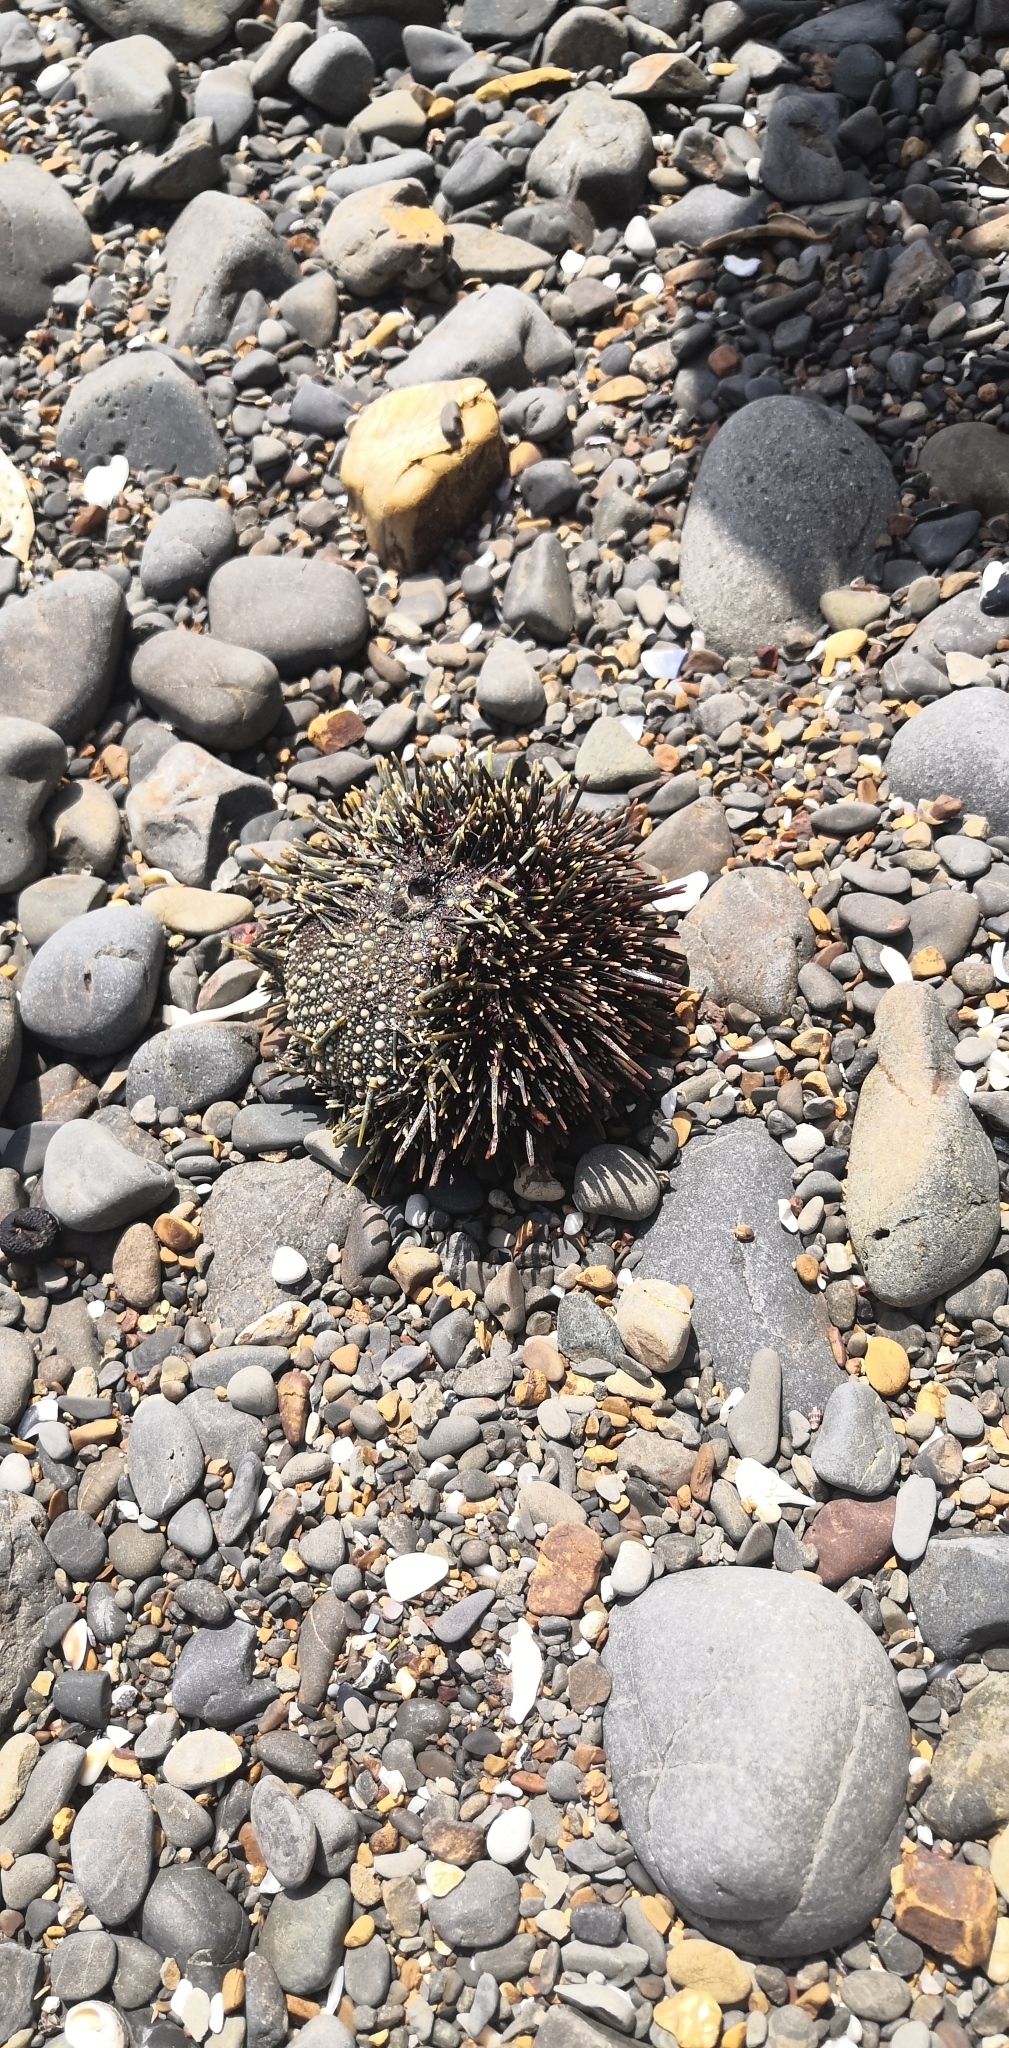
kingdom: Animalia
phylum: Echinodermata
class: Echinoidea
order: Camarodonta
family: Echinometridae
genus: Evechinus
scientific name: Evechinus chloroticus
